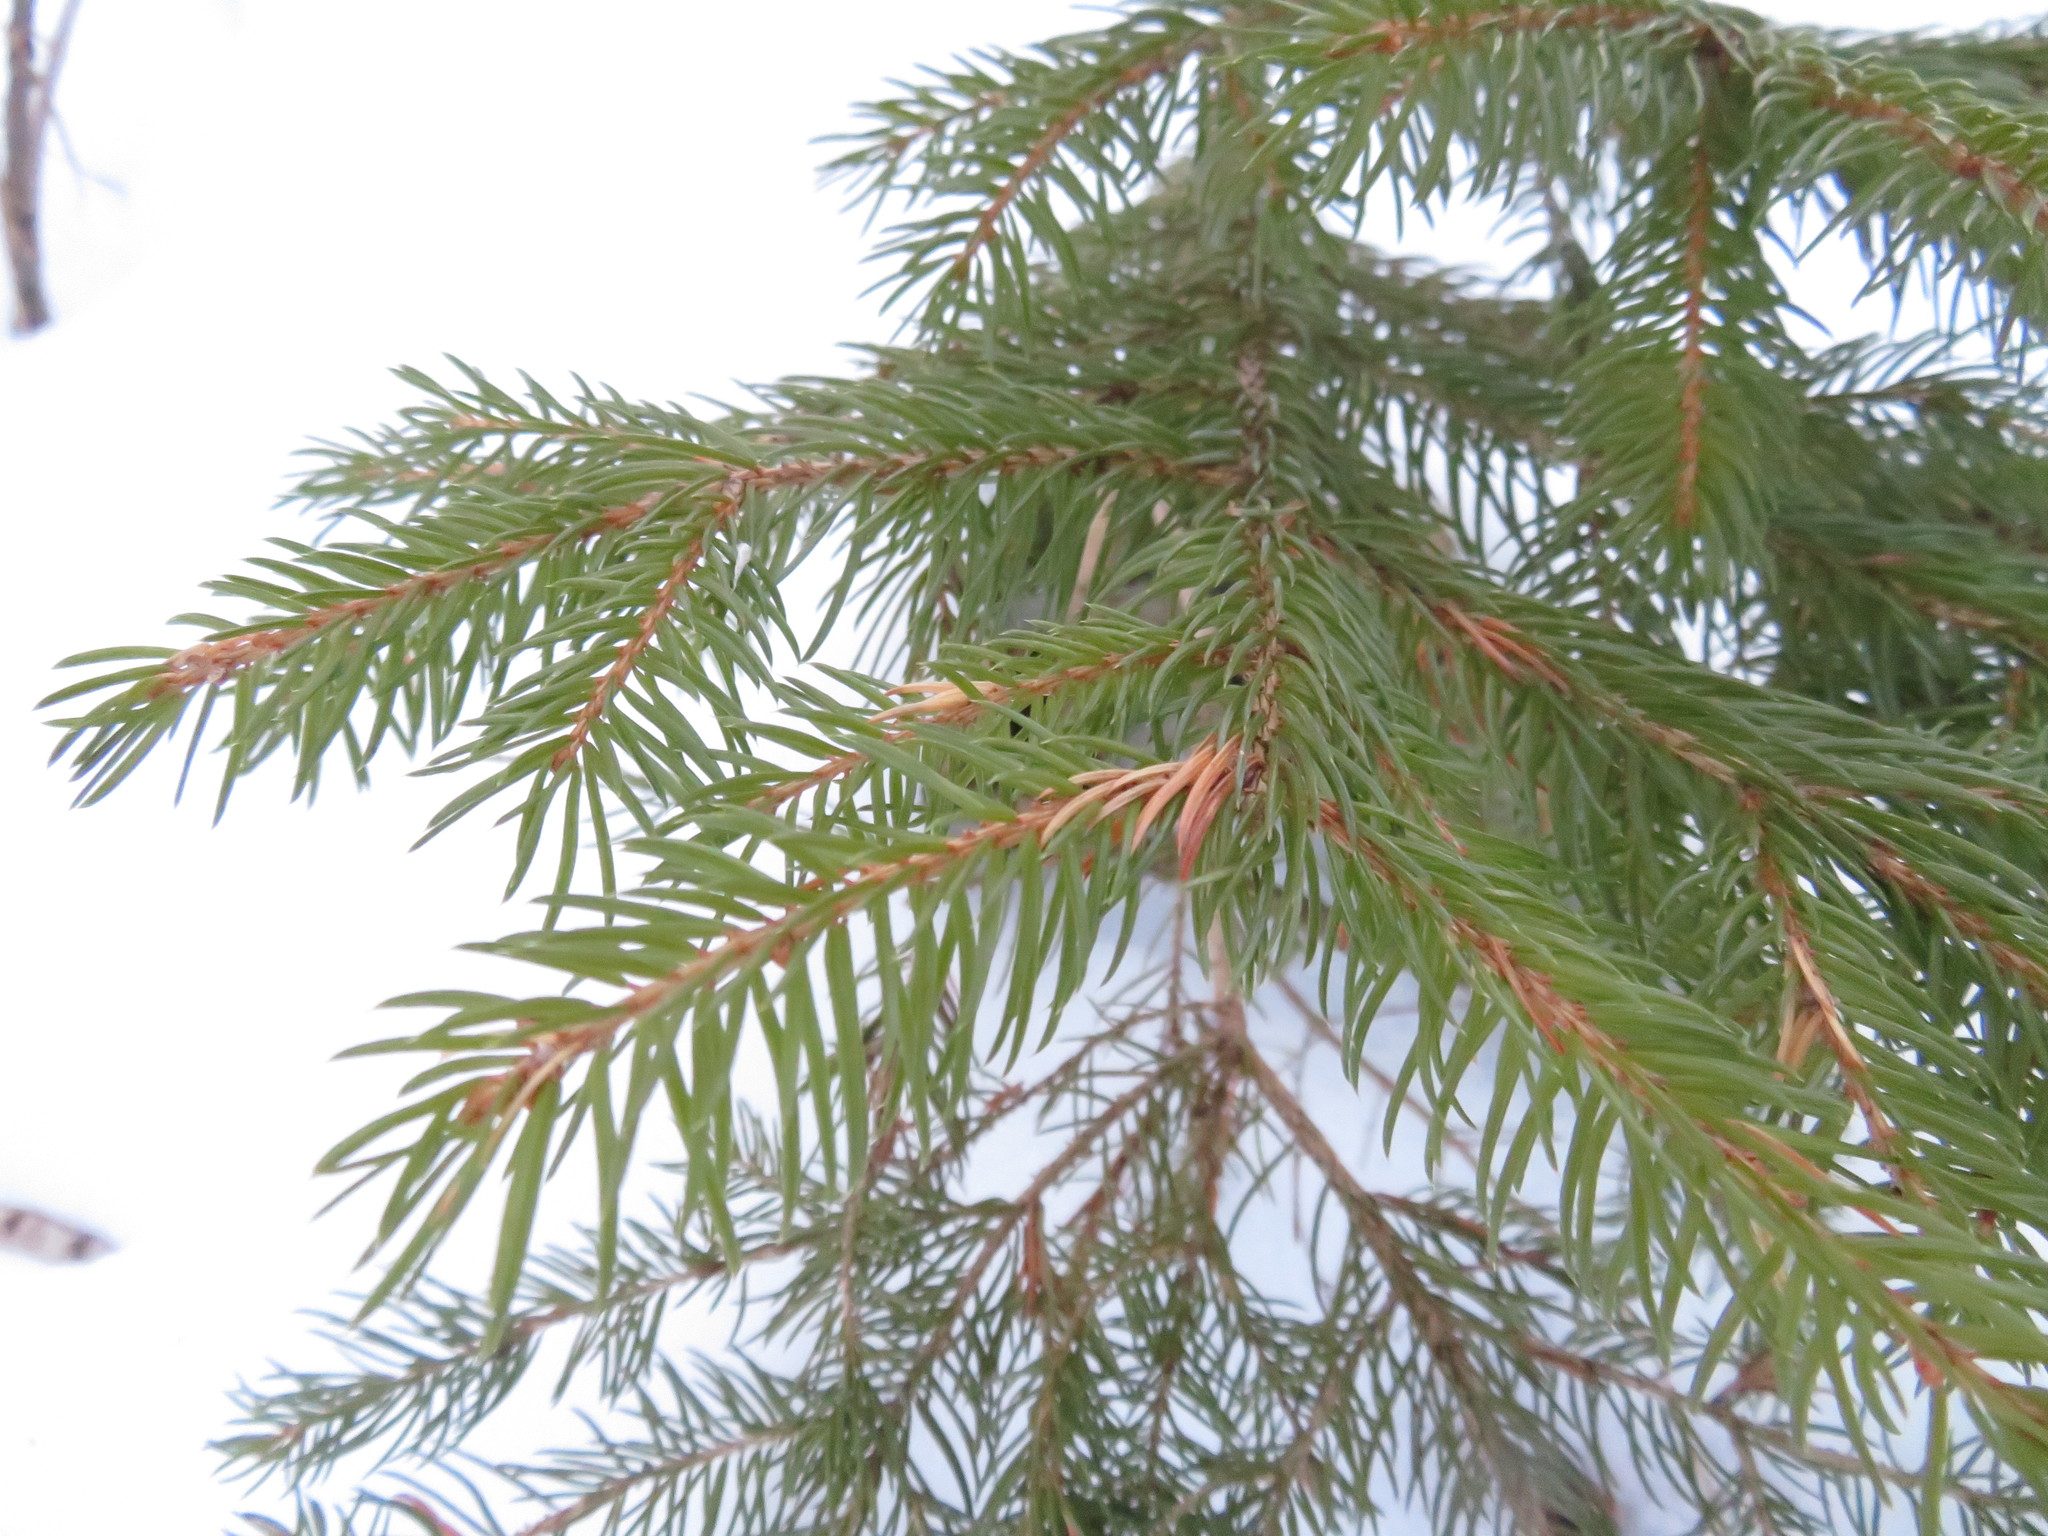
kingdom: Plantae
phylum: Tracheophyta
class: Pinopsida
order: Pinales
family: Pinaceae
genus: Picea
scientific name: Picea abies
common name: Norway spruce
